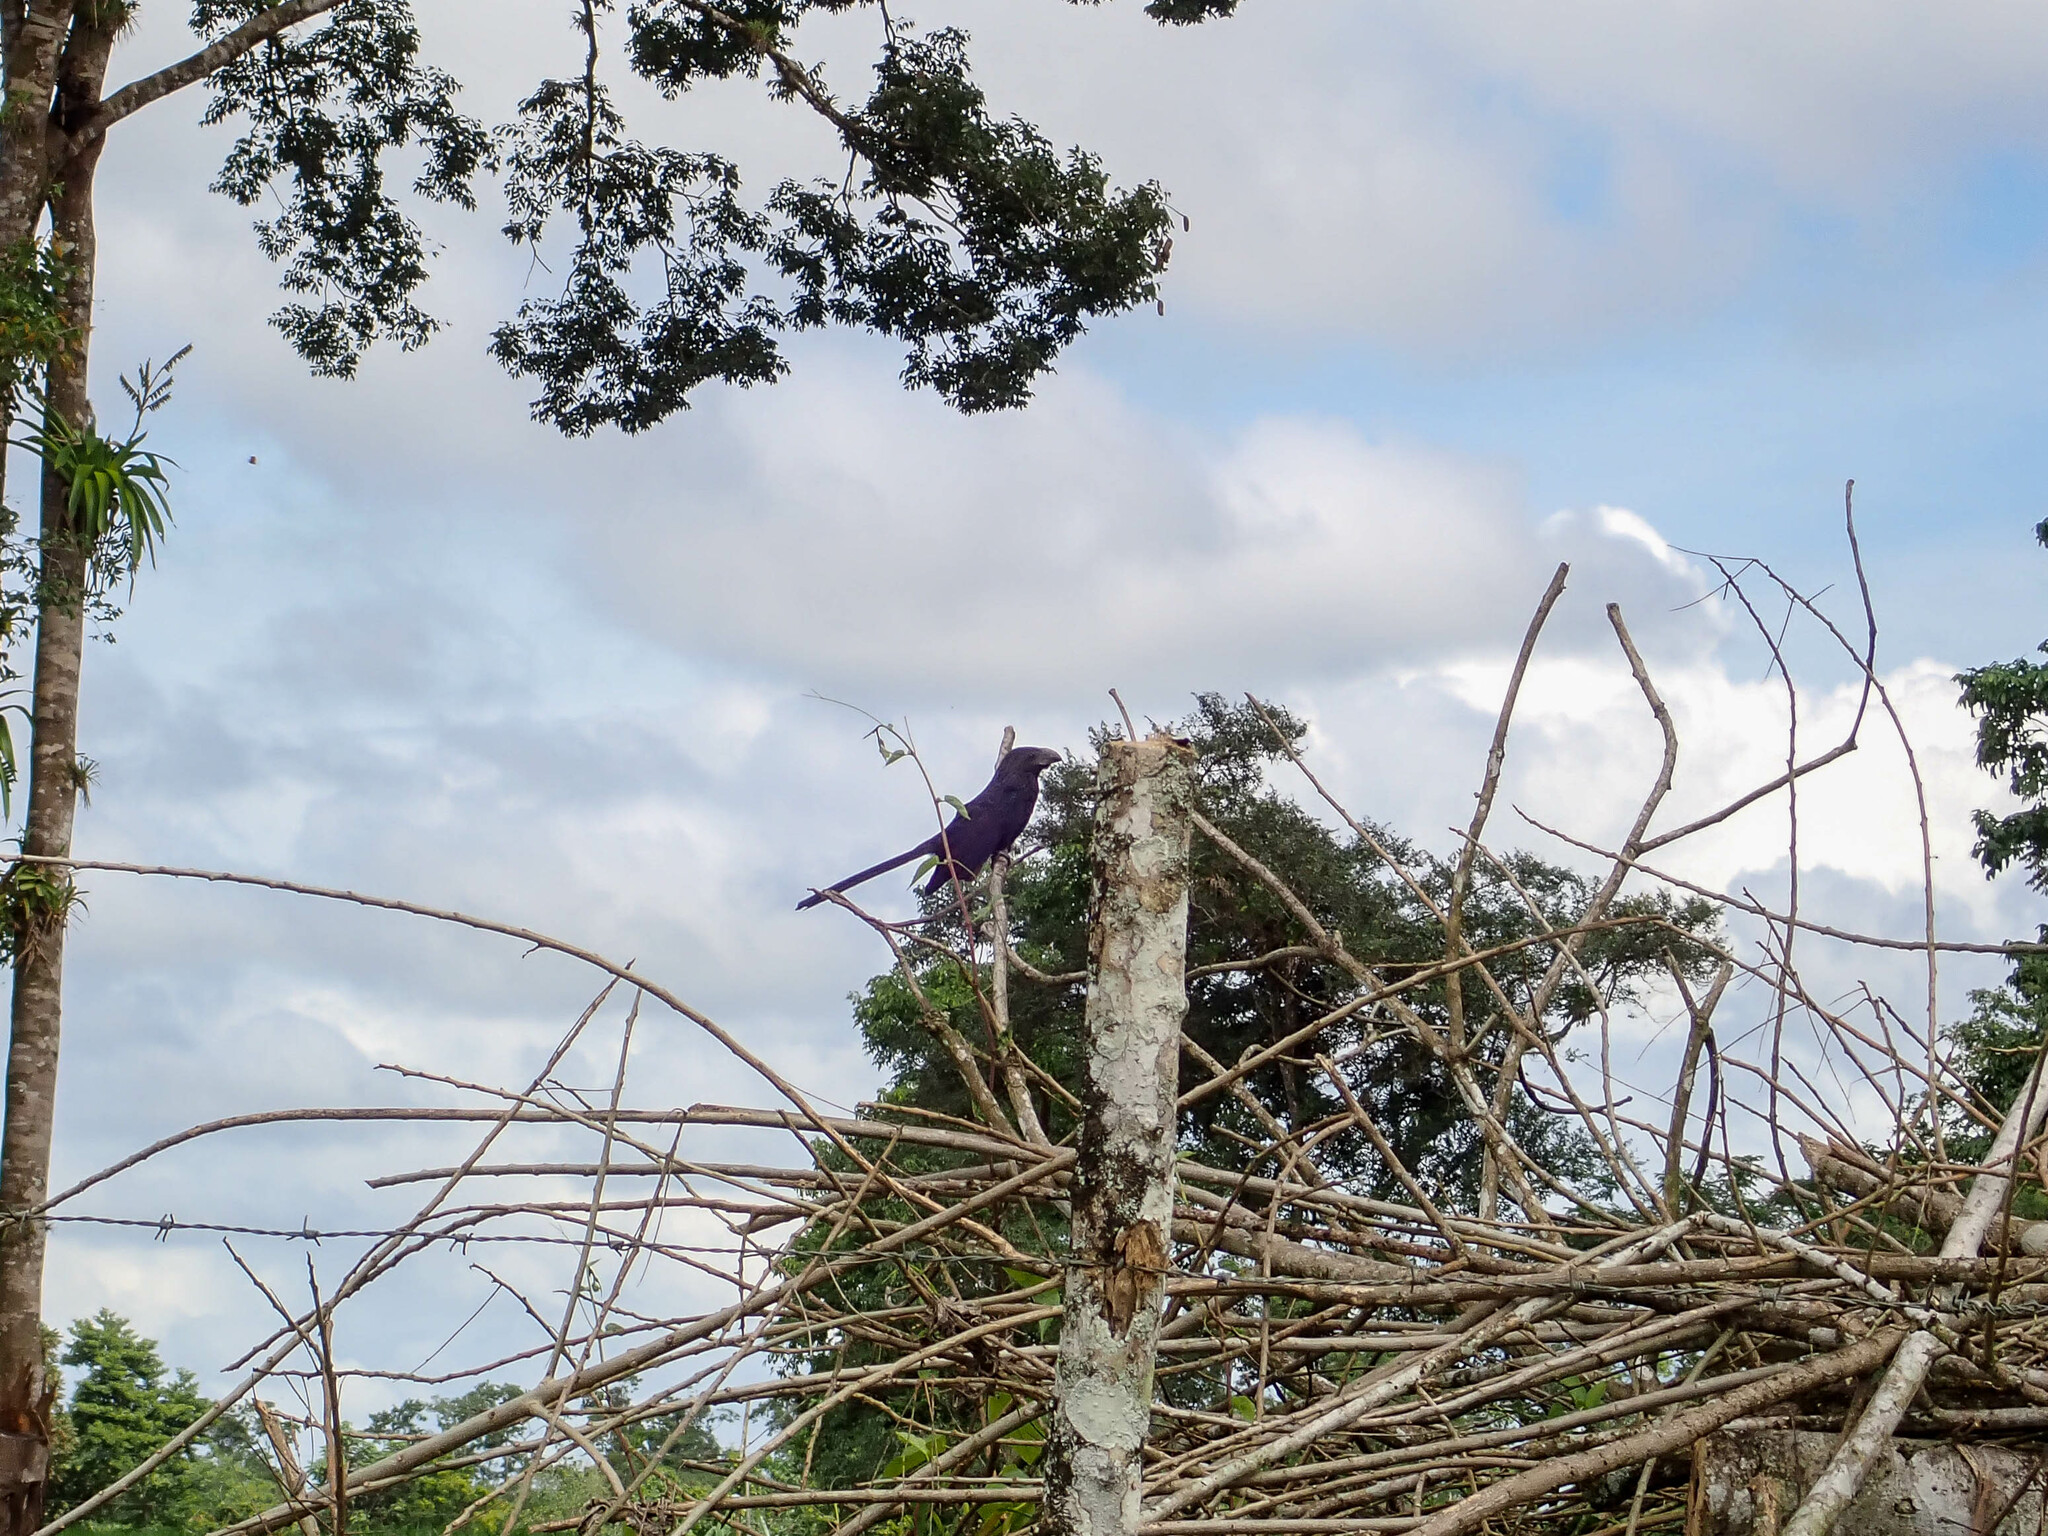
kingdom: Animalia
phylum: Chordata
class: Aves
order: Cuculiformes
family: Cuculidae
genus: Crotophaga
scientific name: Crotophaga sulcirostris
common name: Groove-billed ani
